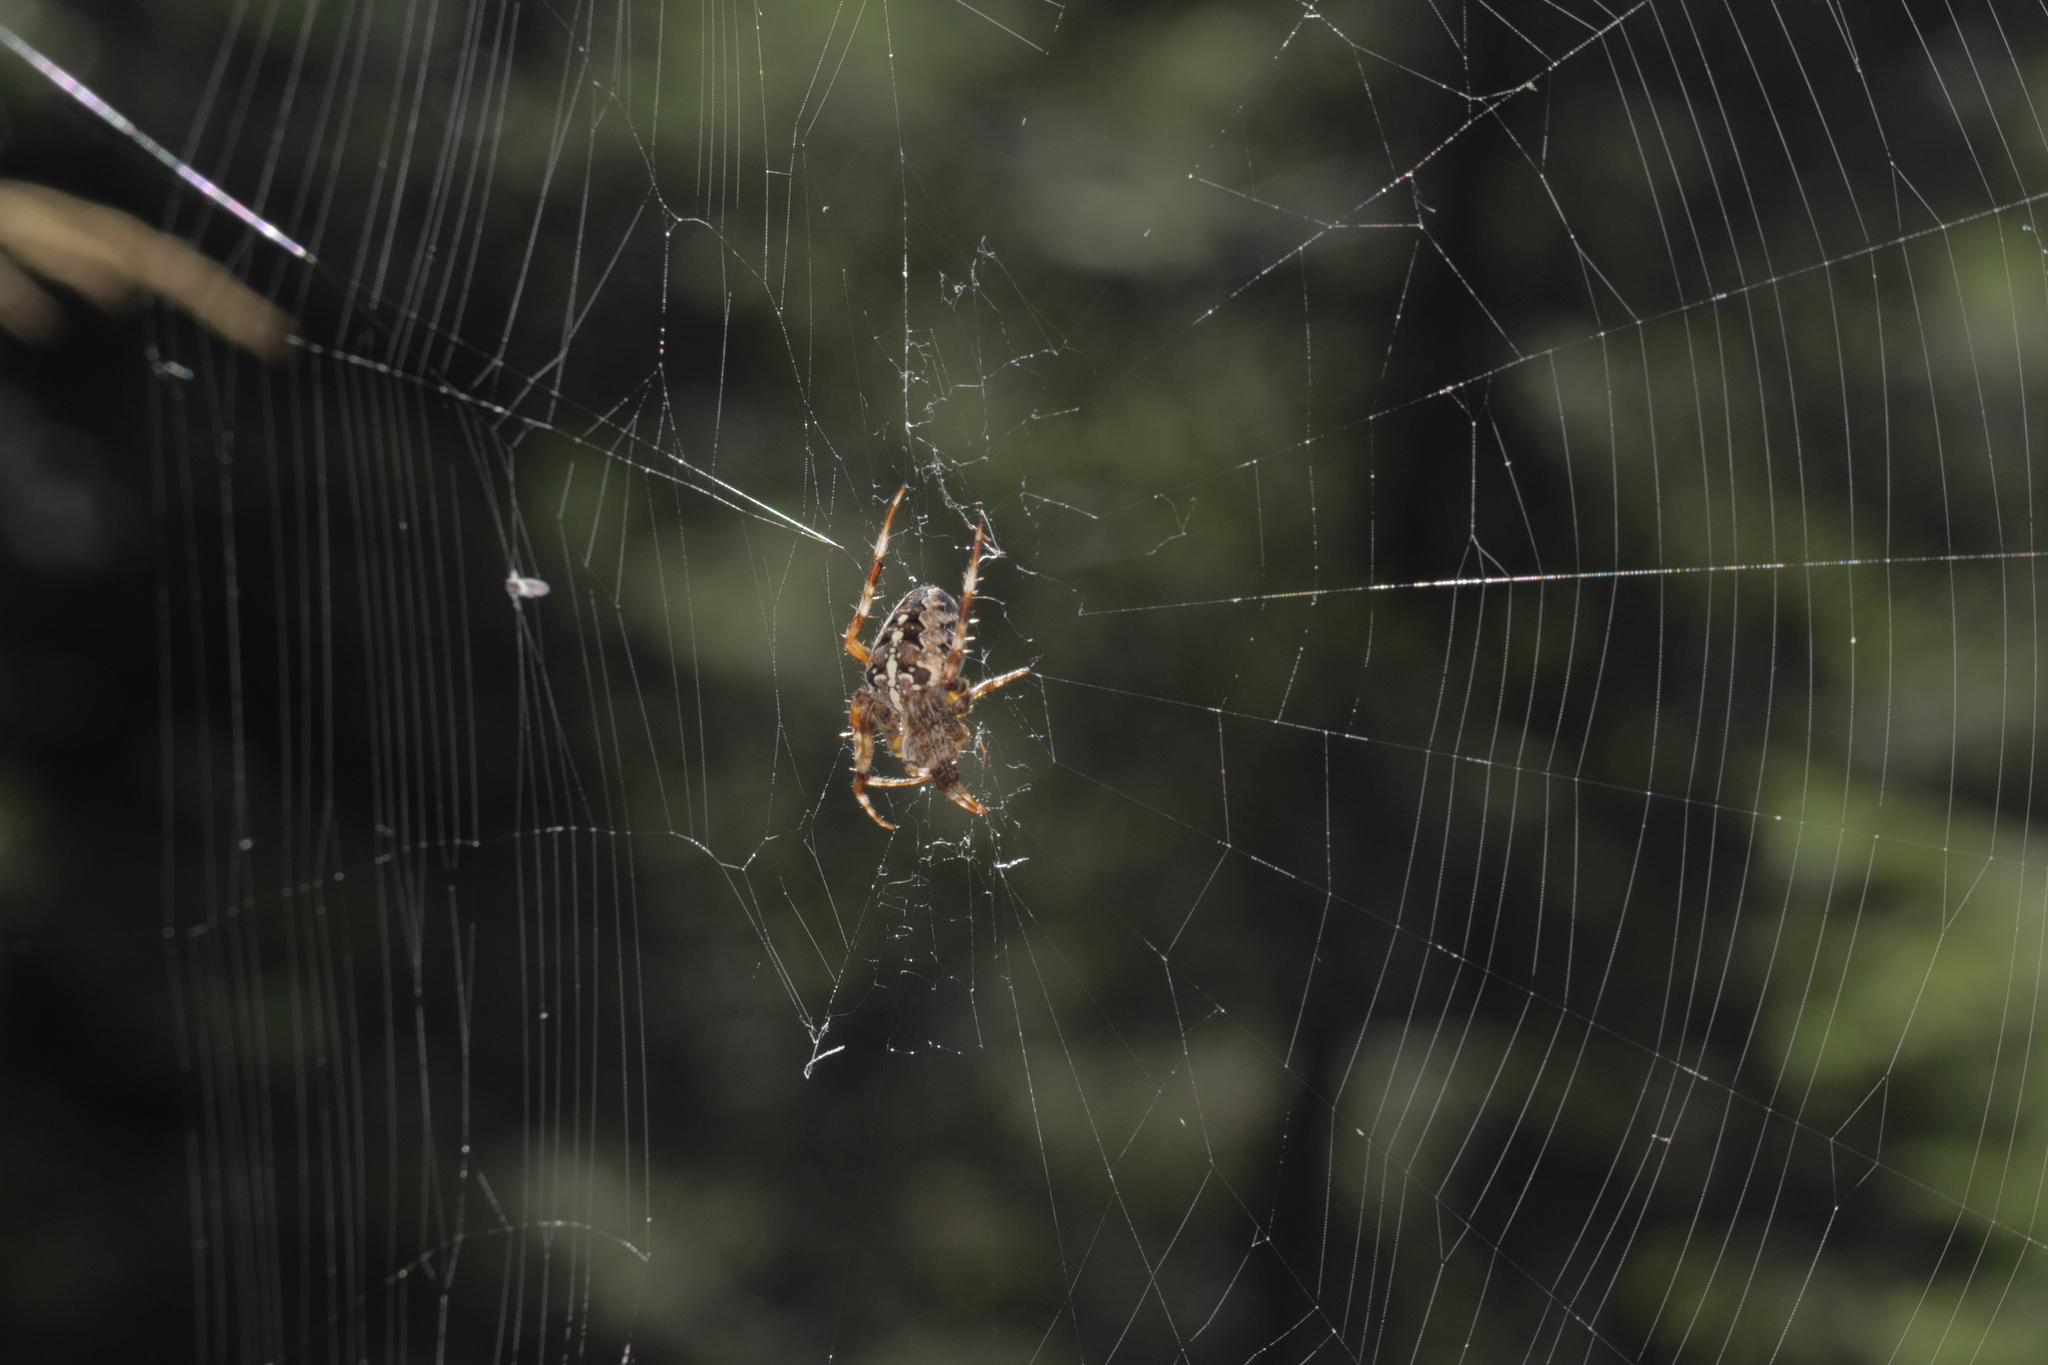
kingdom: Animalia
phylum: Arthropoda
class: Arachnida
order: Araneae
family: Araneidae
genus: Araneus
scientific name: Araneus diadematus
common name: Cross orbweaver
